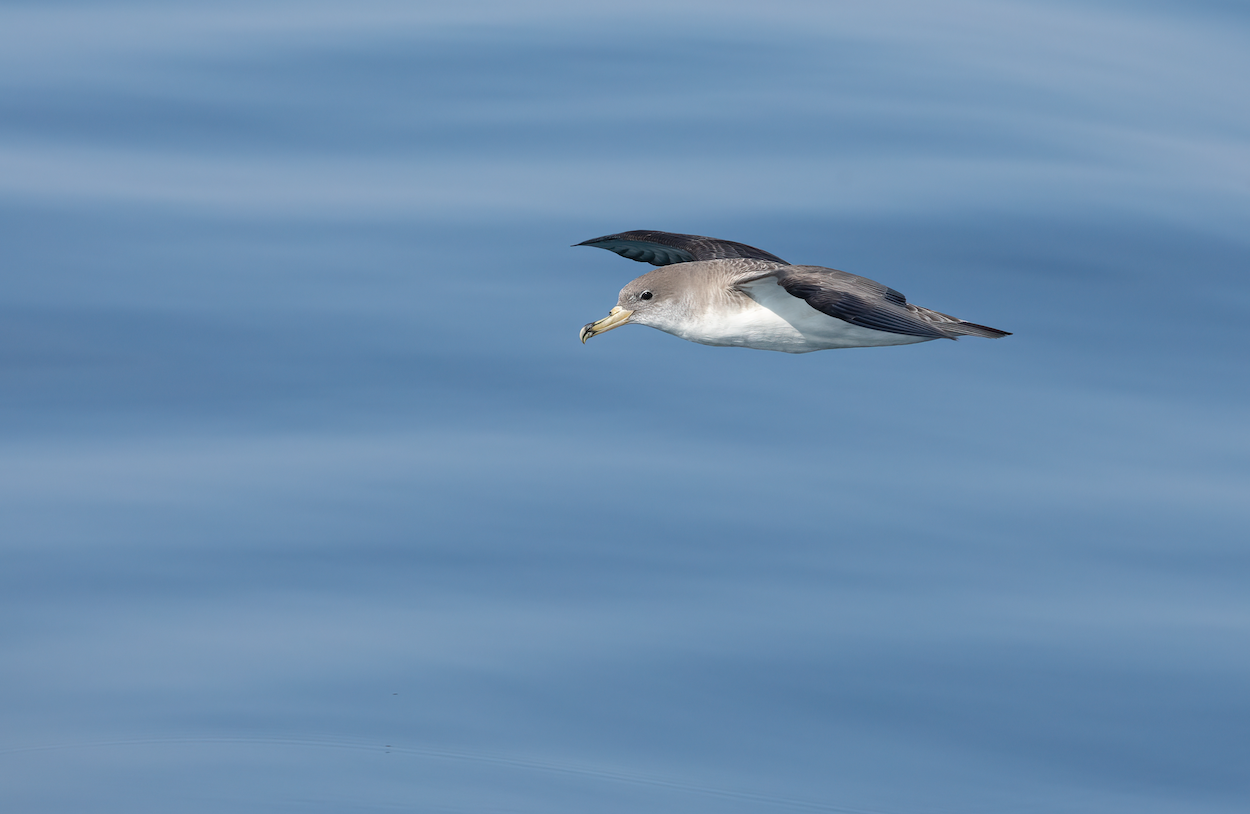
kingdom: Animalia
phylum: Chordata
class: Aves
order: Procellariiformes
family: Procellariidae
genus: Calonectris
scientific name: Calonectris diomedea
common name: Cory's shearwater
